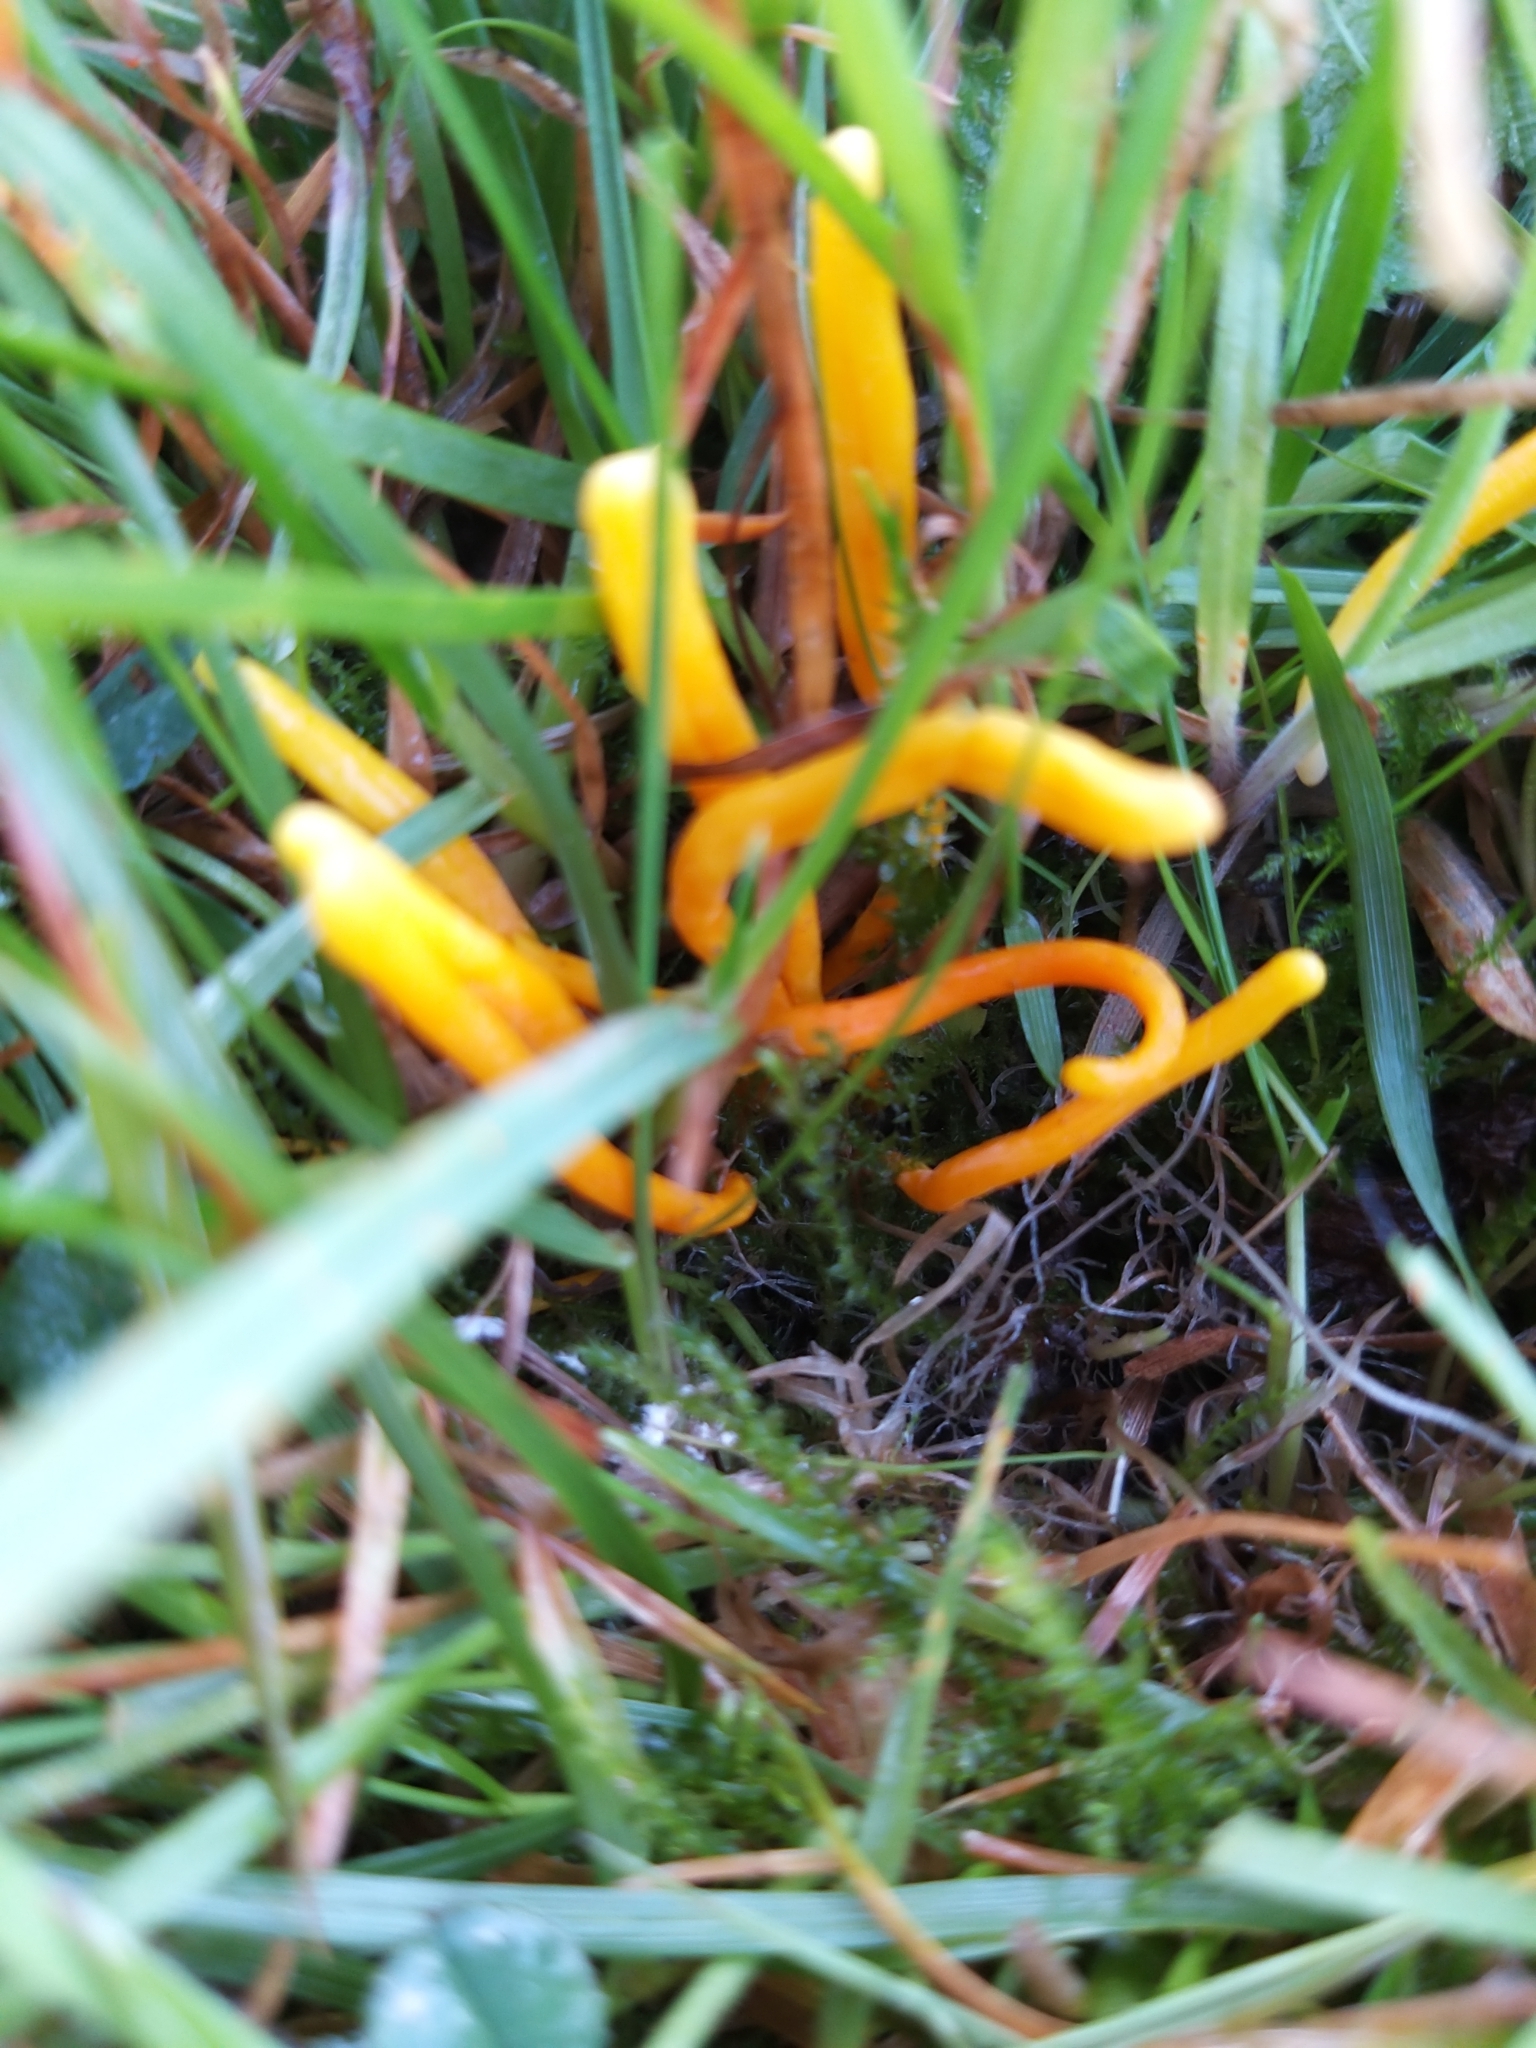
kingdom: Fungi
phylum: Basidiomycota
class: Agaricomycetes
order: Agaricales
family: Clavariaceae
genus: Clavulinopsis
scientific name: Clavulinopsis laeticolor
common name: Handsome club
